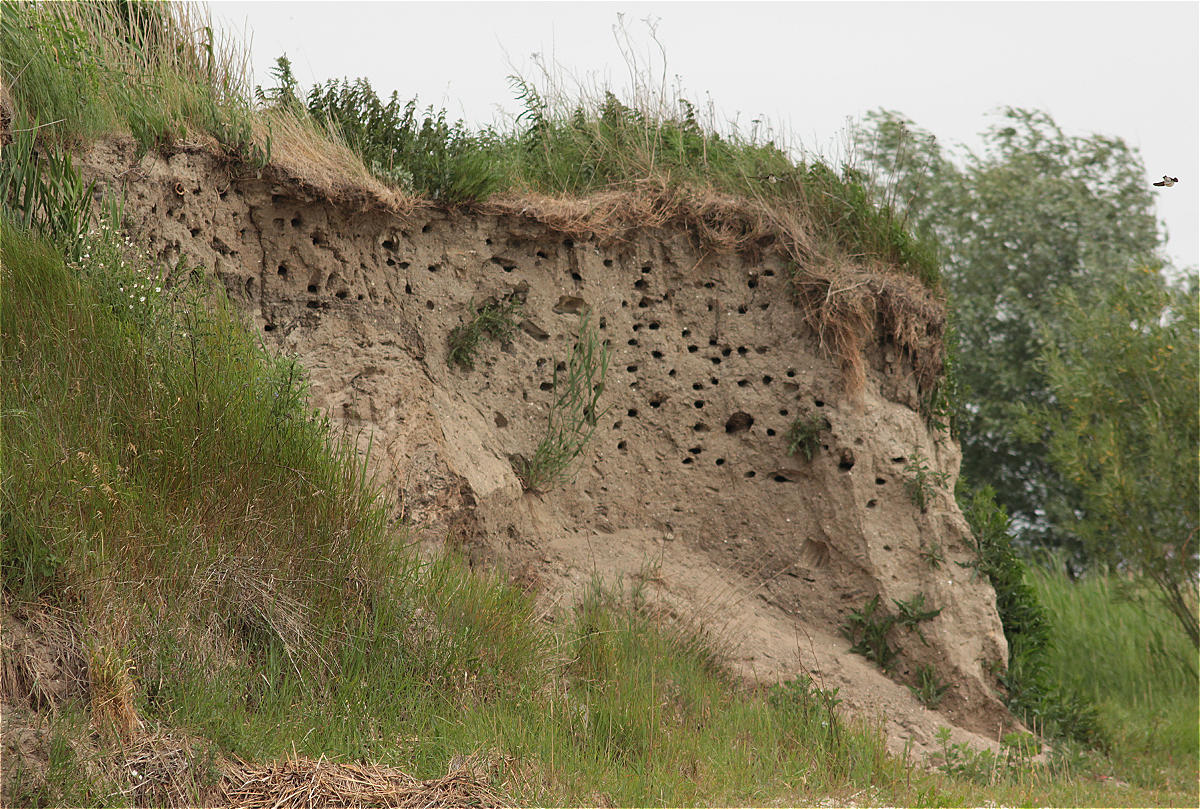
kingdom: Animalia
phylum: Chordata
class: Aves
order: Passeriformes
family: Hirundinidae
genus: Riparia
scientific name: Riparia riparia
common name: Sand martin
